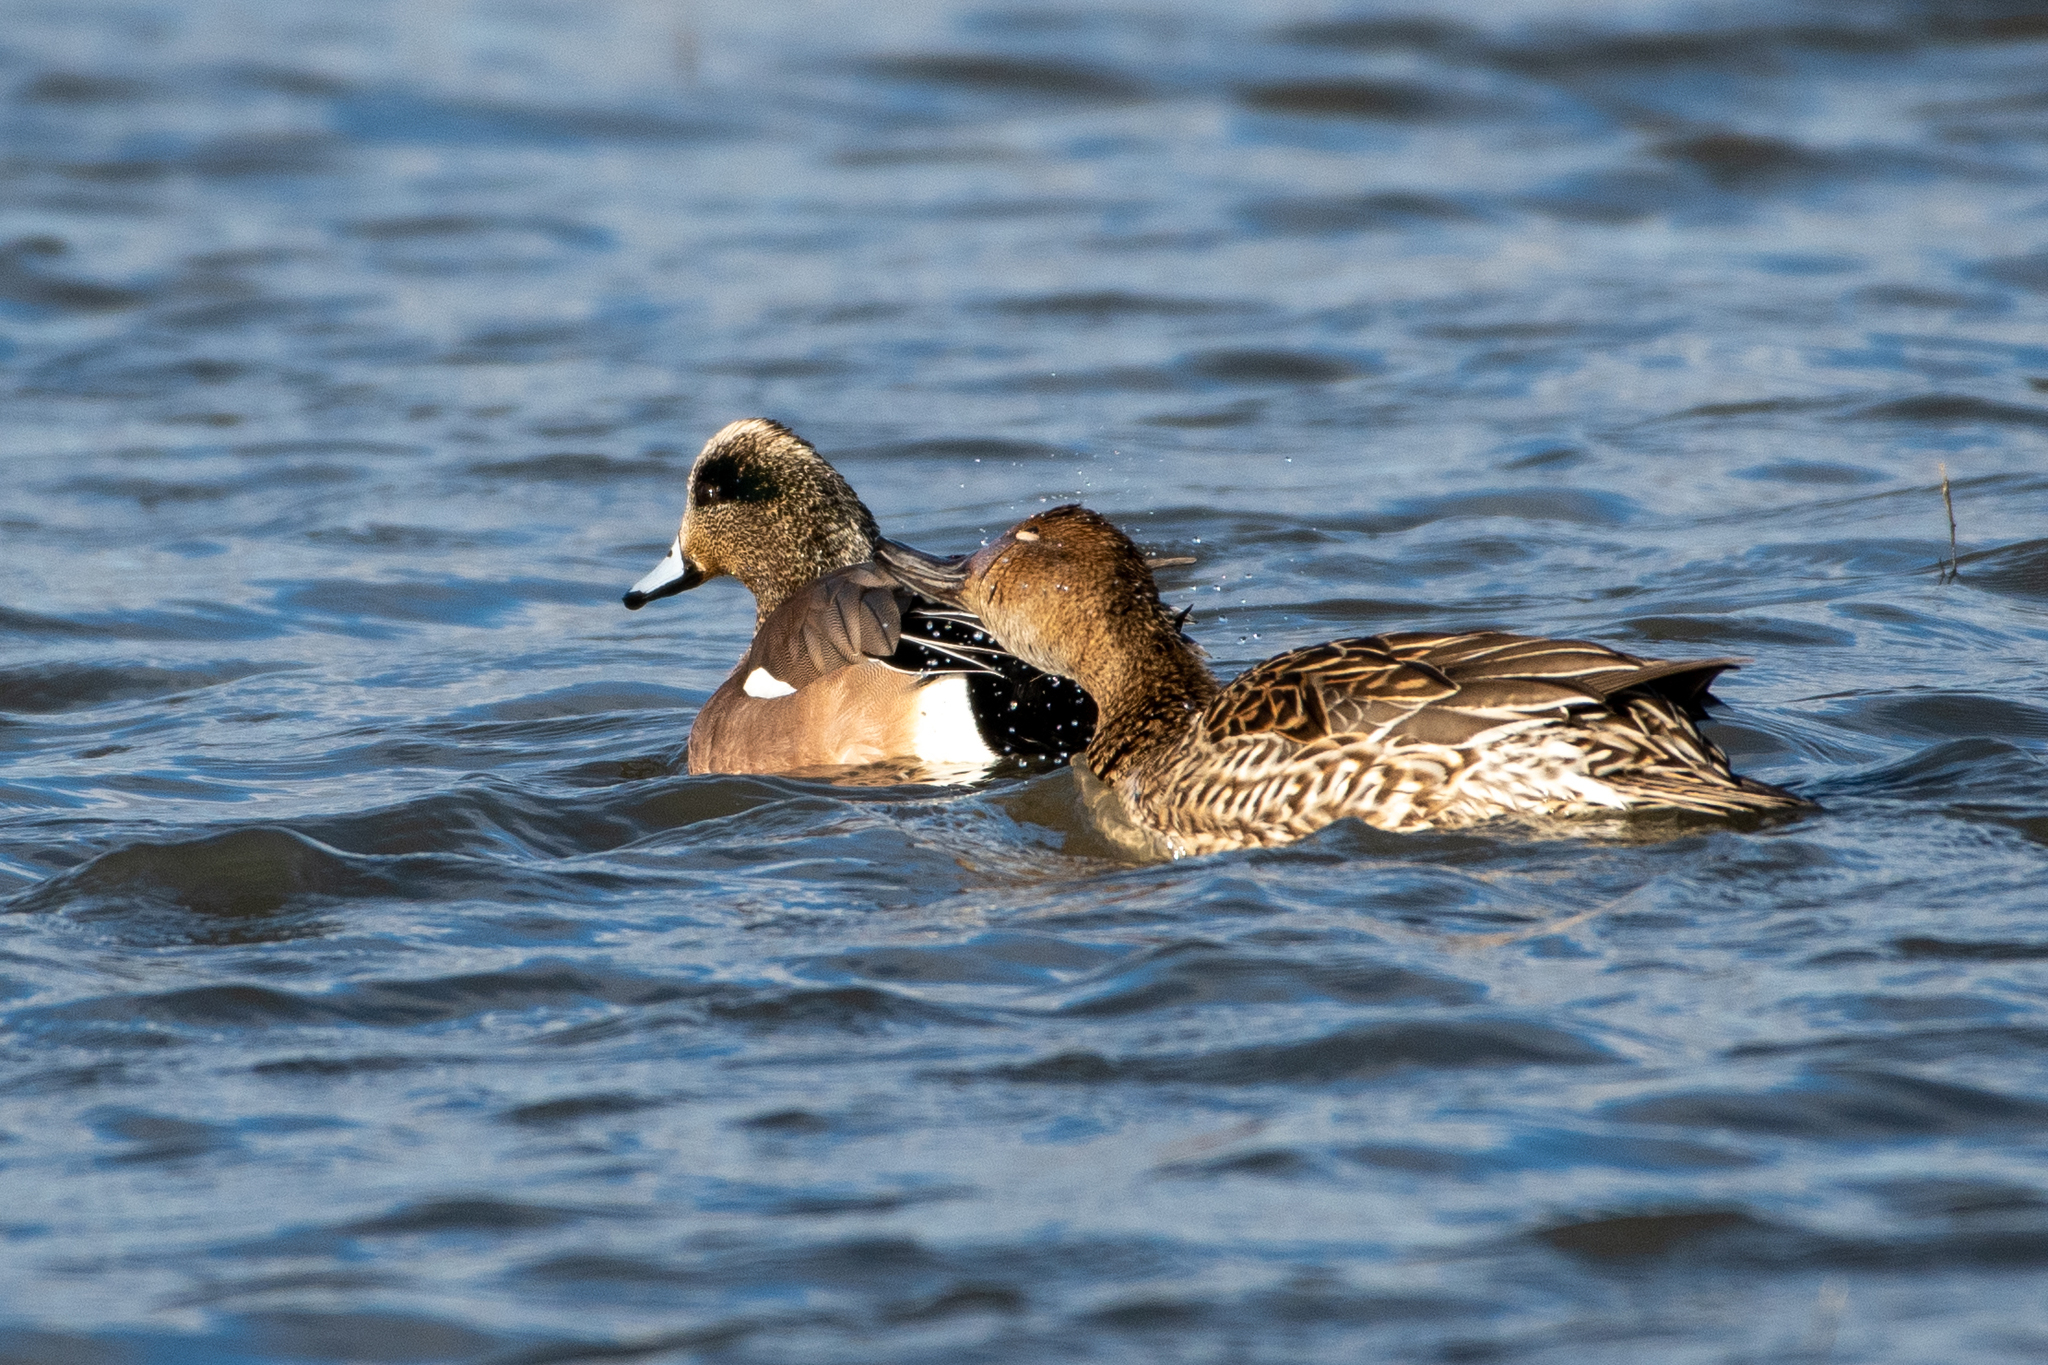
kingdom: Animalia
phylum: Chordata
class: Aves
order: Anseriformes
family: Anatidae
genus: Mareca
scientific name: Mareca americana
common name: American wigeon
